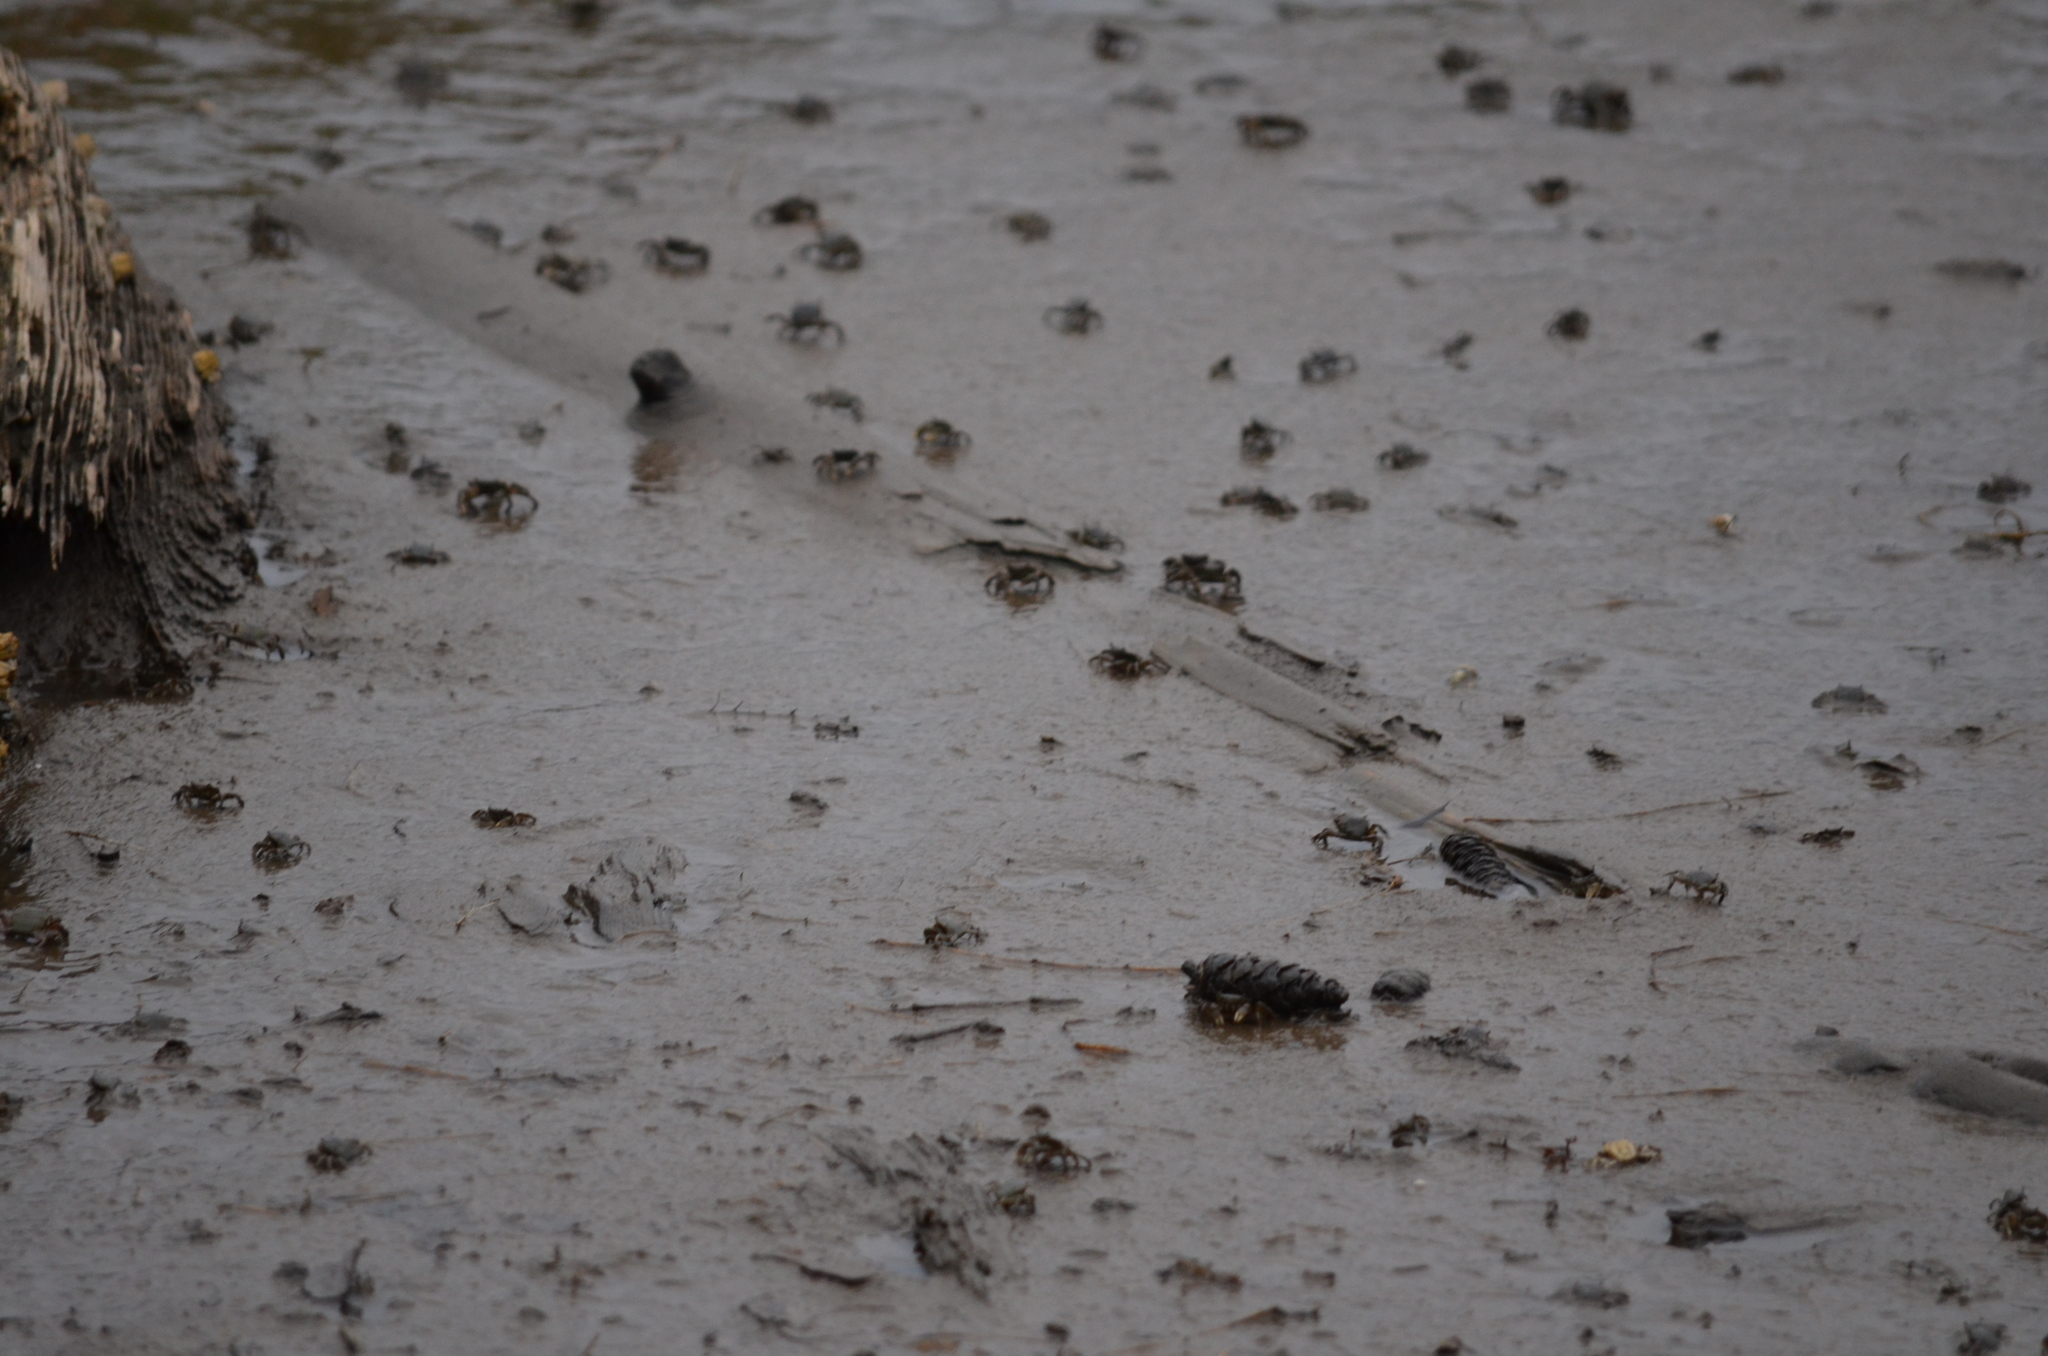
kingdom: Animalia
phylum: Arthropoda
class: Malacostraca
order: Decapoda
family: Varunidae
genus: Hemigrapsus
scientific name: Hemigrapsus oregonensis
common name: Yellow shore crab
